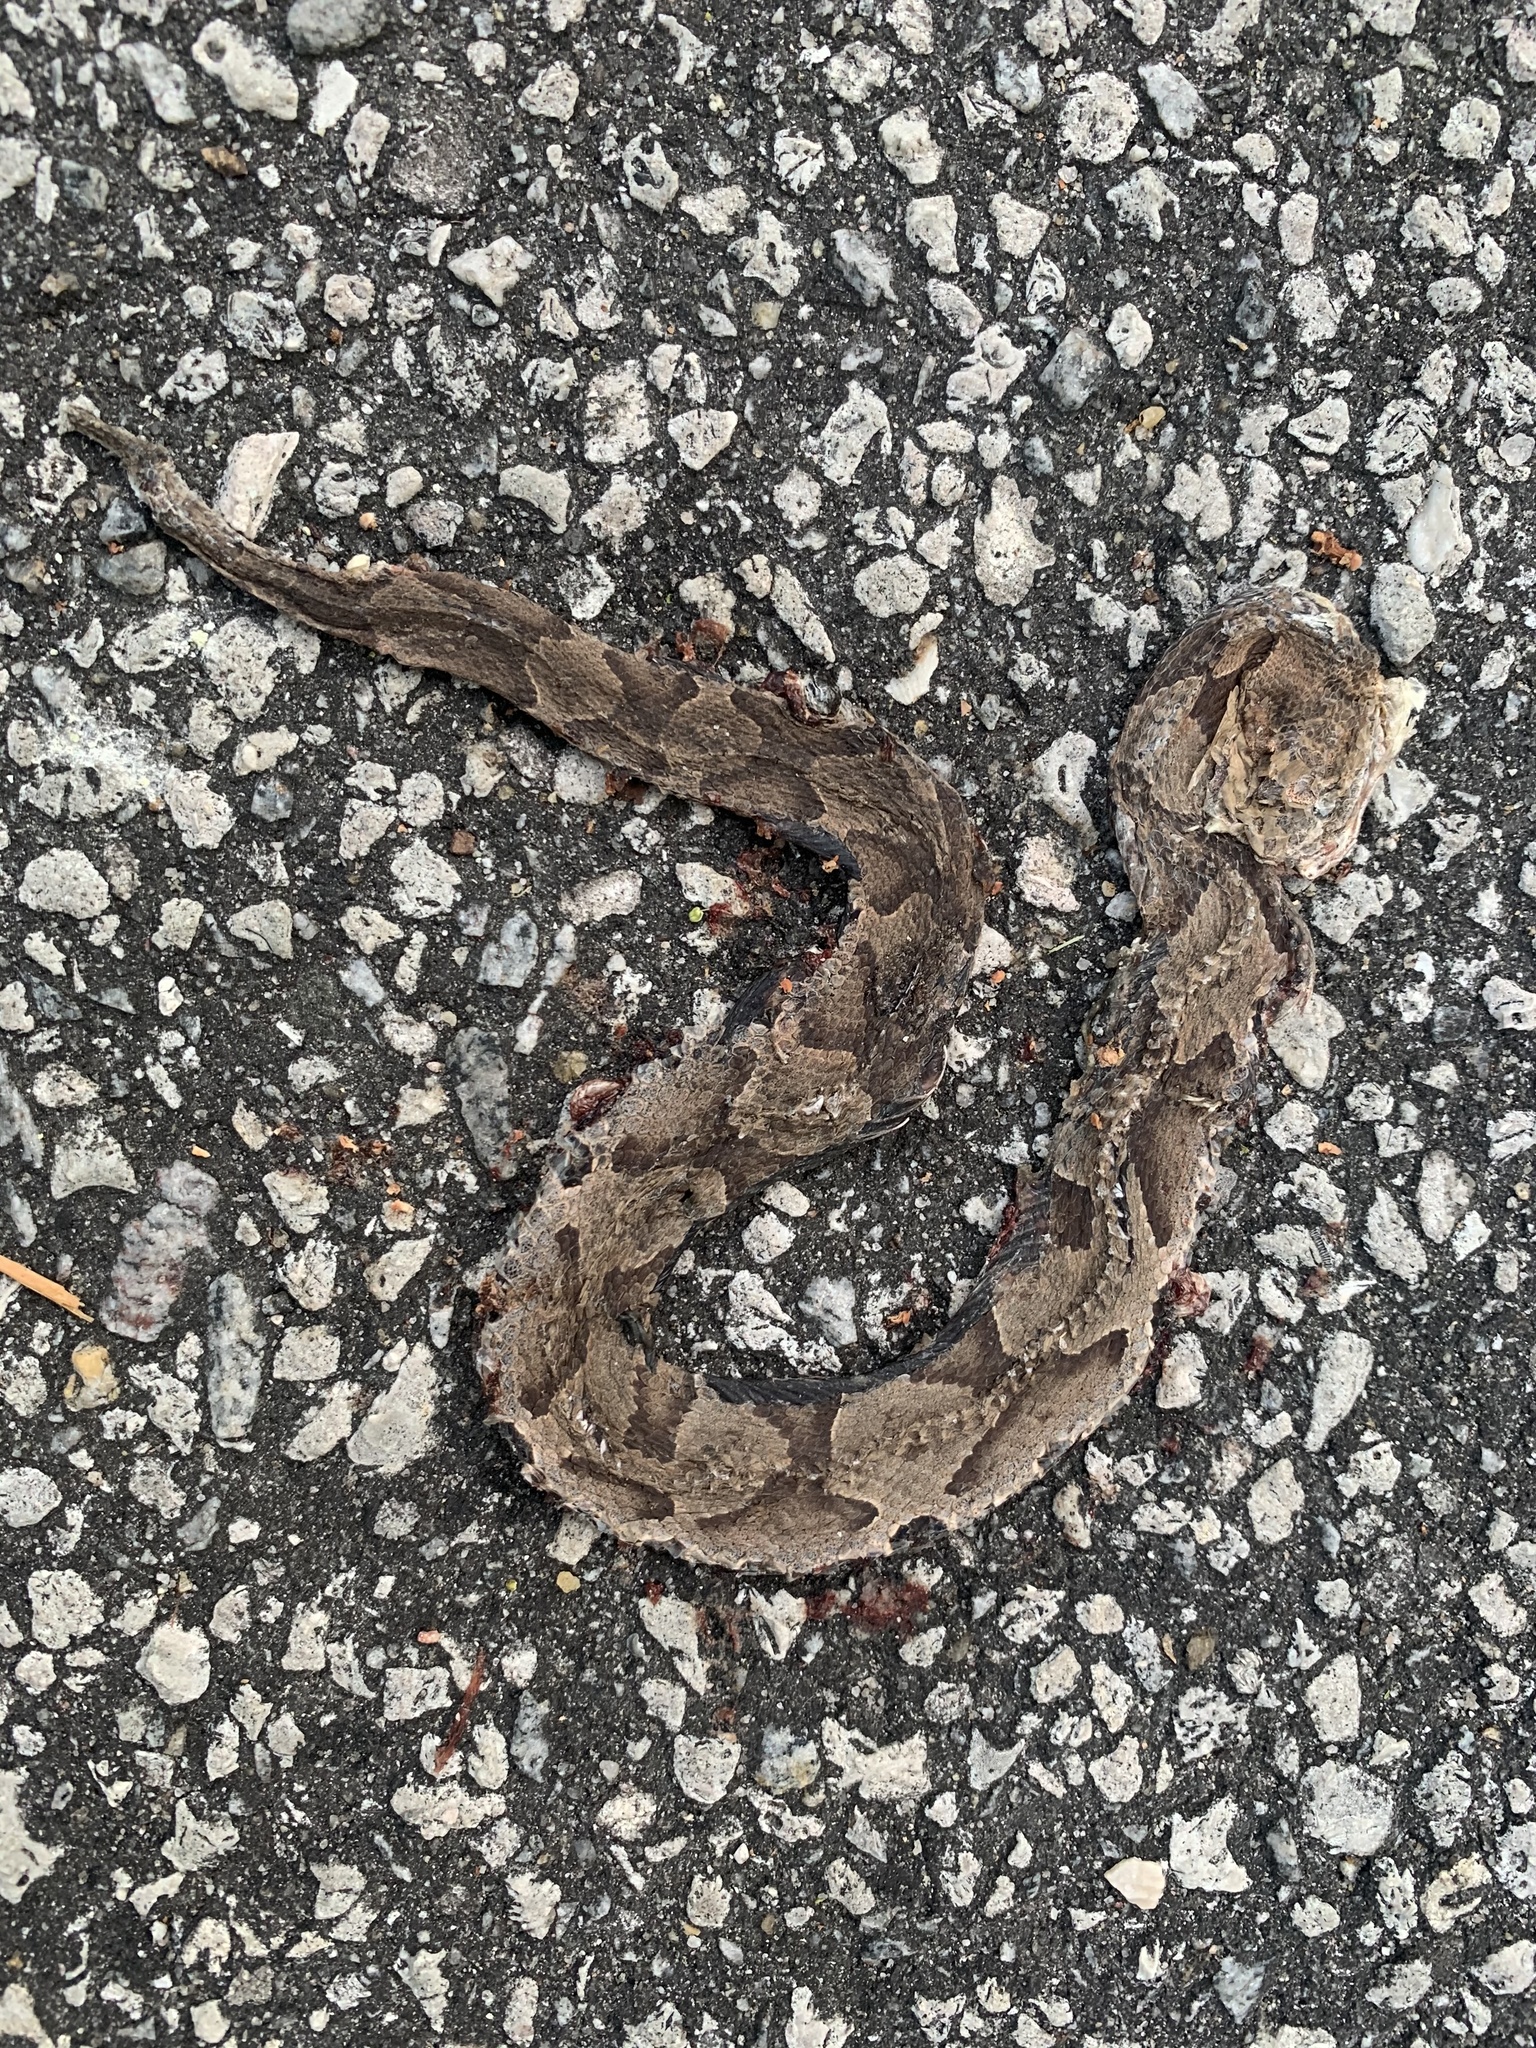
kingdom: Animalia
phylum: Chordata
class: Squamata
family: Viperidae
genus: Agkistrodon
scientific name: Agkistrodon contortrix
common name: Northern copperhead
